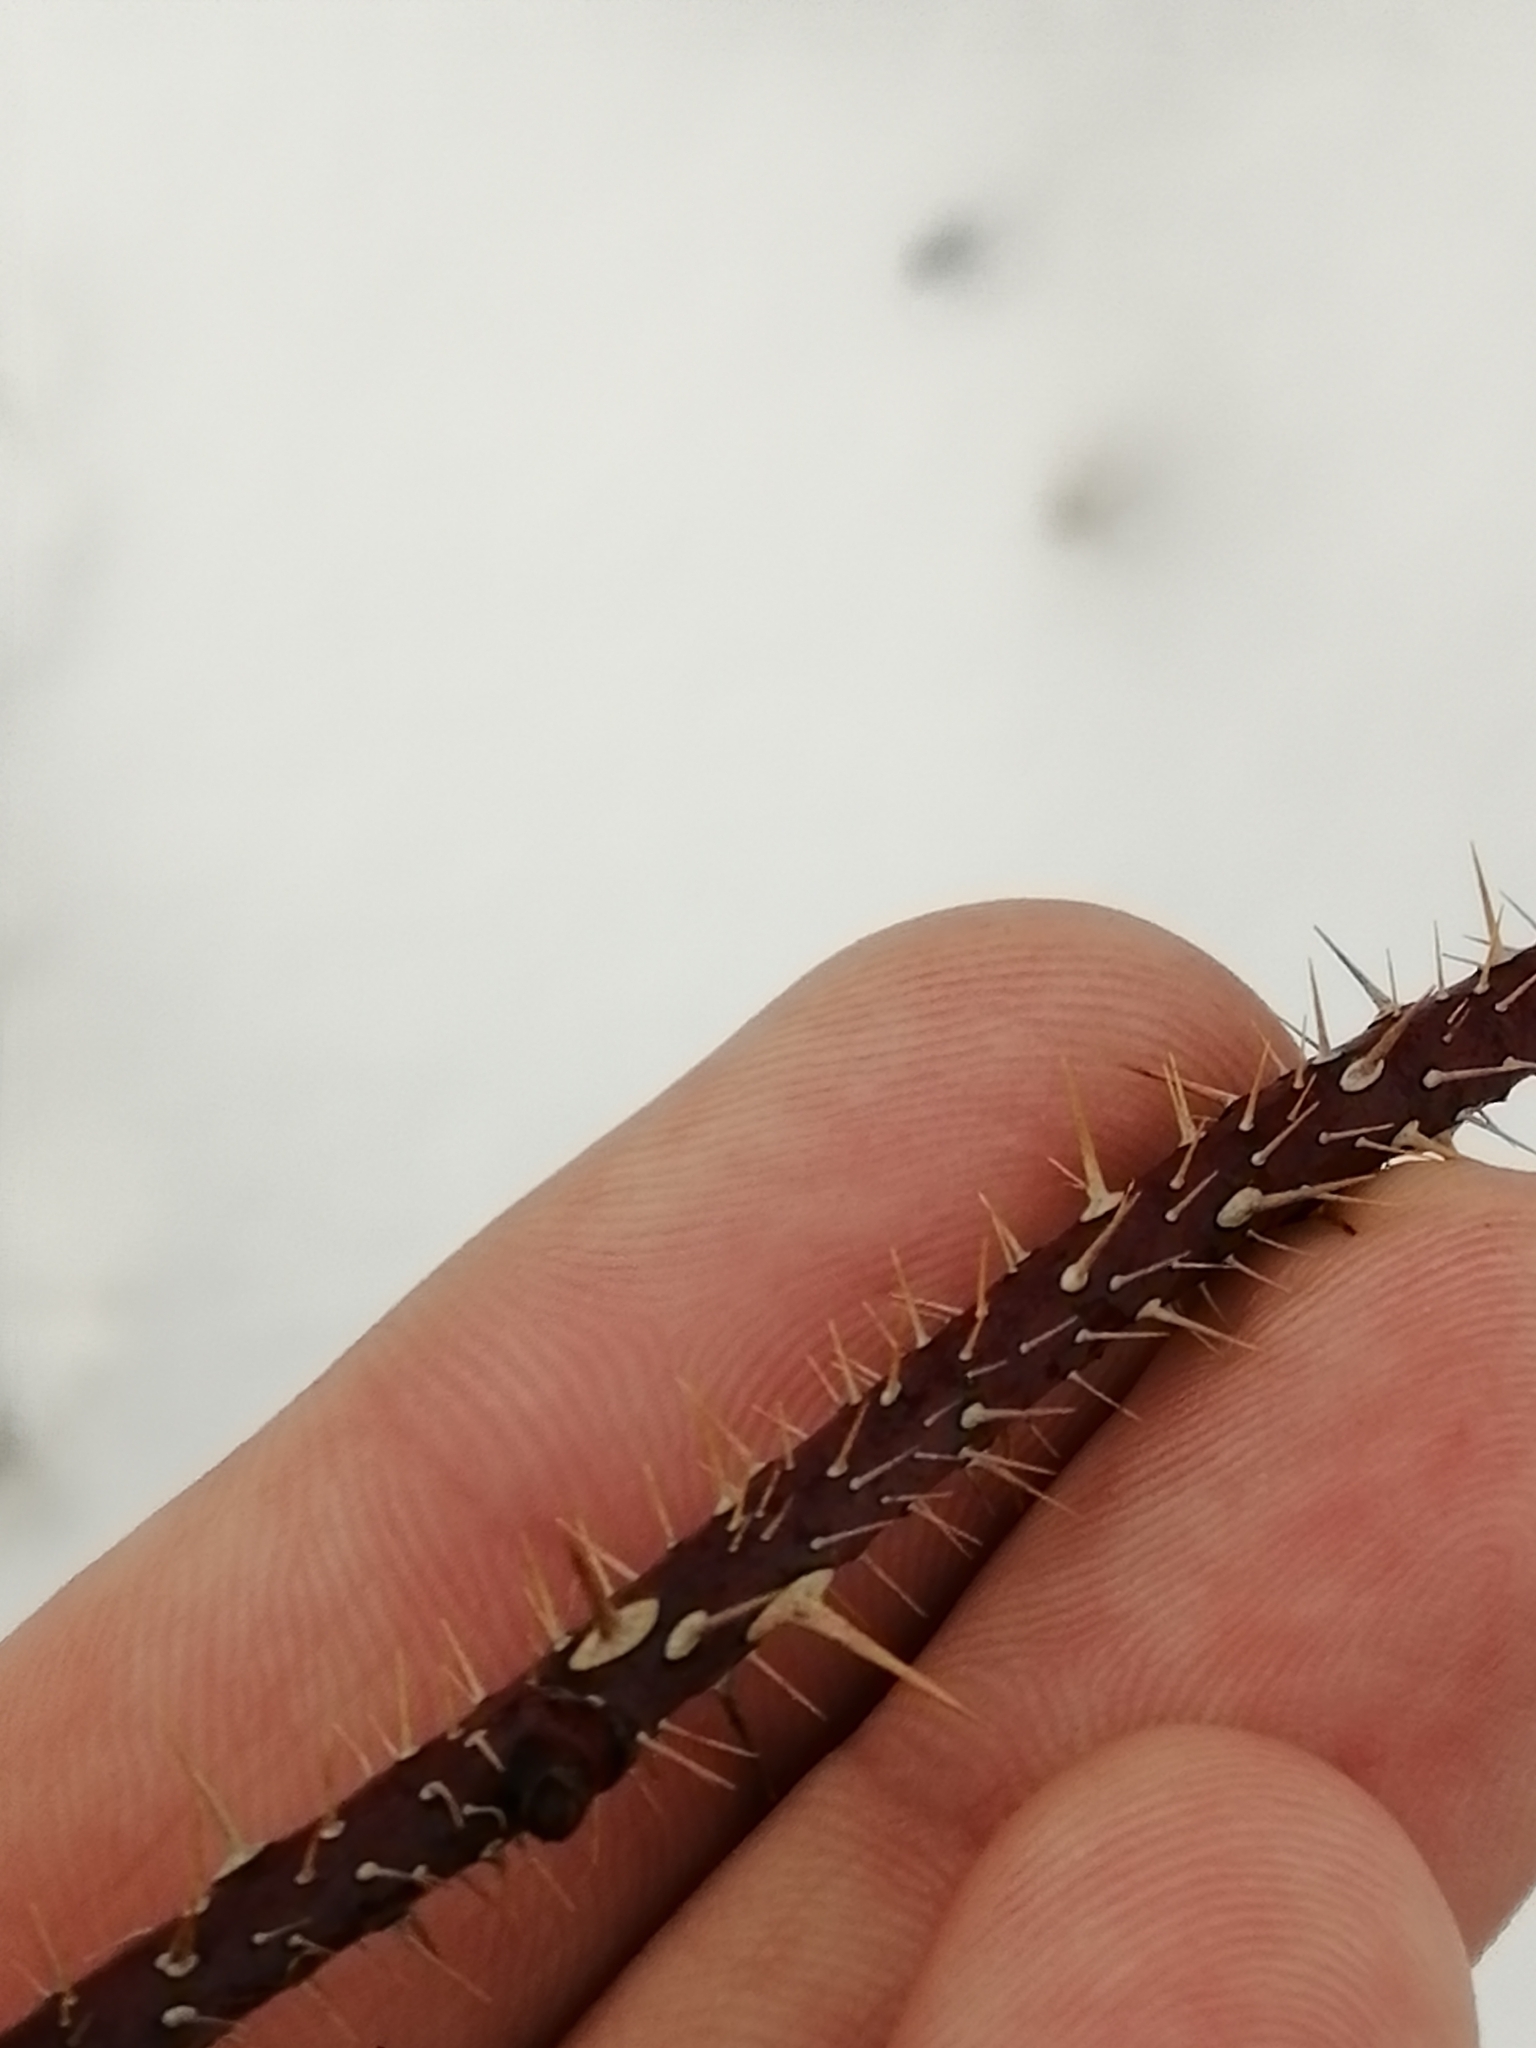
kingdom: Plantae
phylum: Tracheophyta
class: Magnoliopsida
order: Rosales
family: Rosaceae
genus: Rosa
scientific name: Rosa acicularis
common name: Prickly rose
